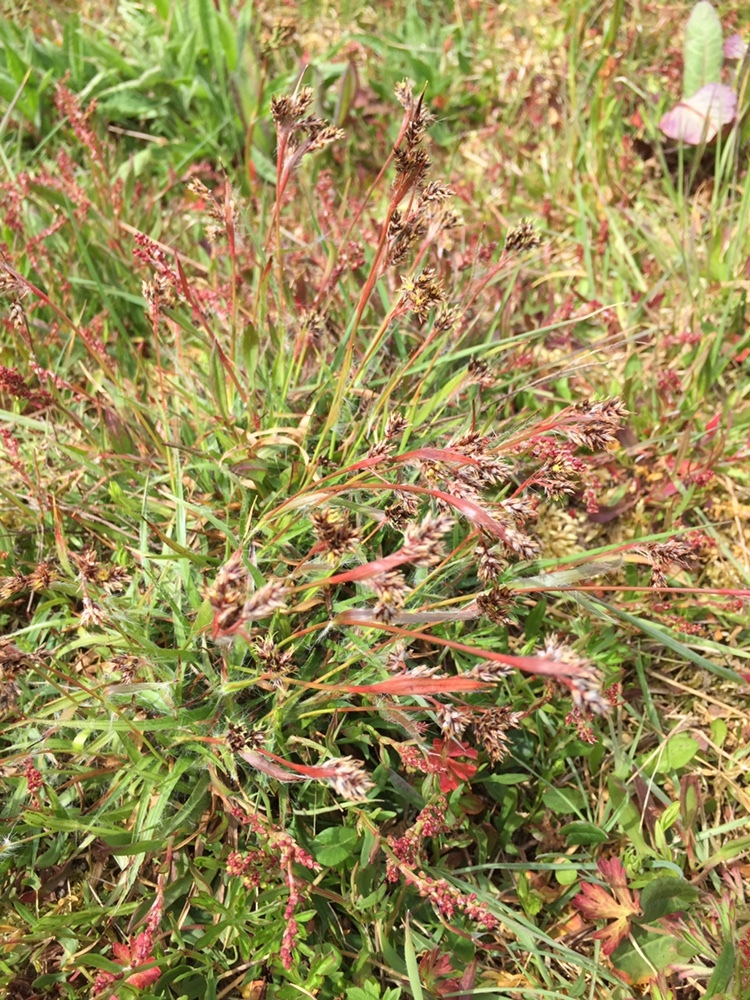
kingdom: Plantae
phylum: Tracheophyta
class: Liliopsida
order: Poales
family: Juncaceae
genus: Luzula
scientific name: Luzula campestris
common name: Field wood-rush
